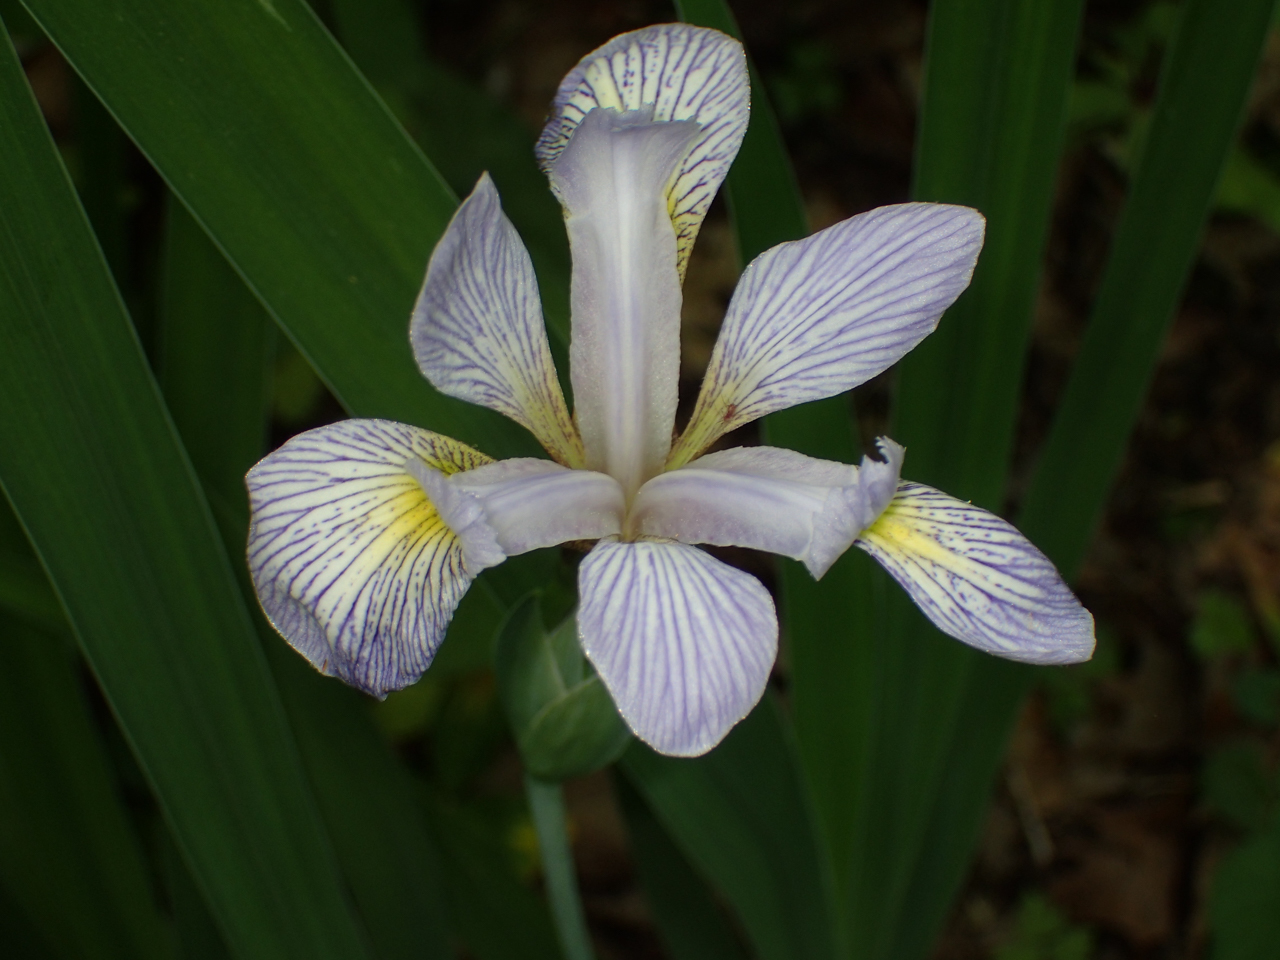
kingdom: Plantae
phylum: Tracheophyta
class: Liliopsida
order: Asparagales
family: Iridaceae
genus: Iris
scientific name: Iris virginica
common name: Southern blue flag
